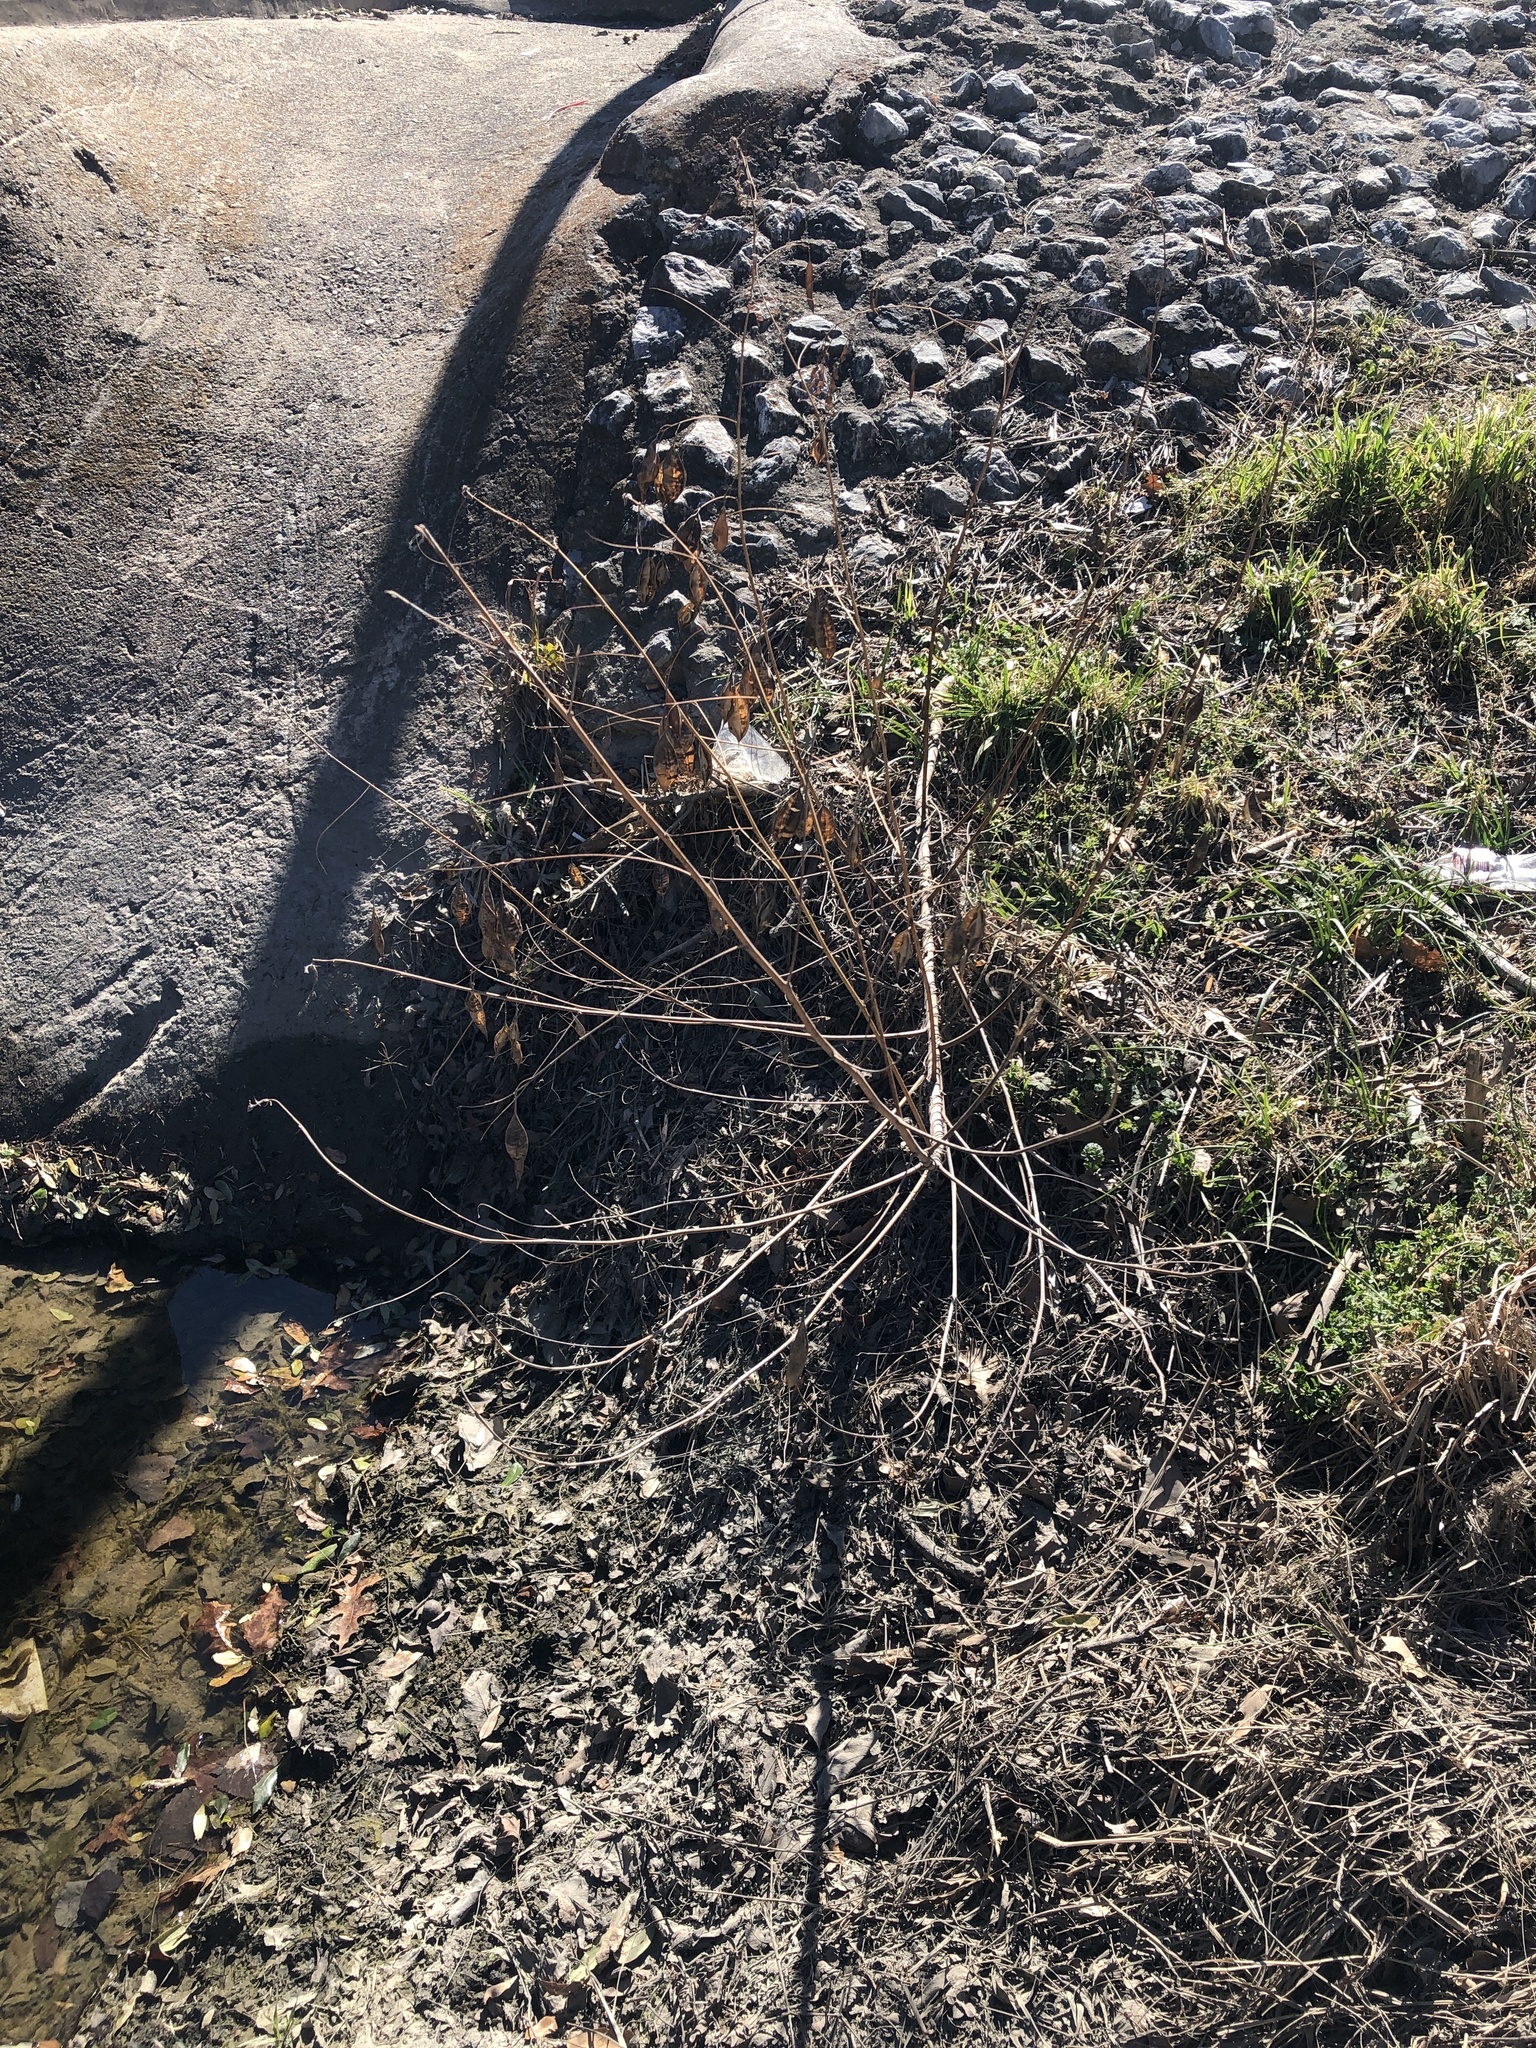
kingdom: Plantae
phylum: Tracheophyta
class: Magnoliopsida
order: Fabales
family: Fabaceae
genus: Sesbania
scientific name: Sesbania vesicaria
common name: Bagpod
